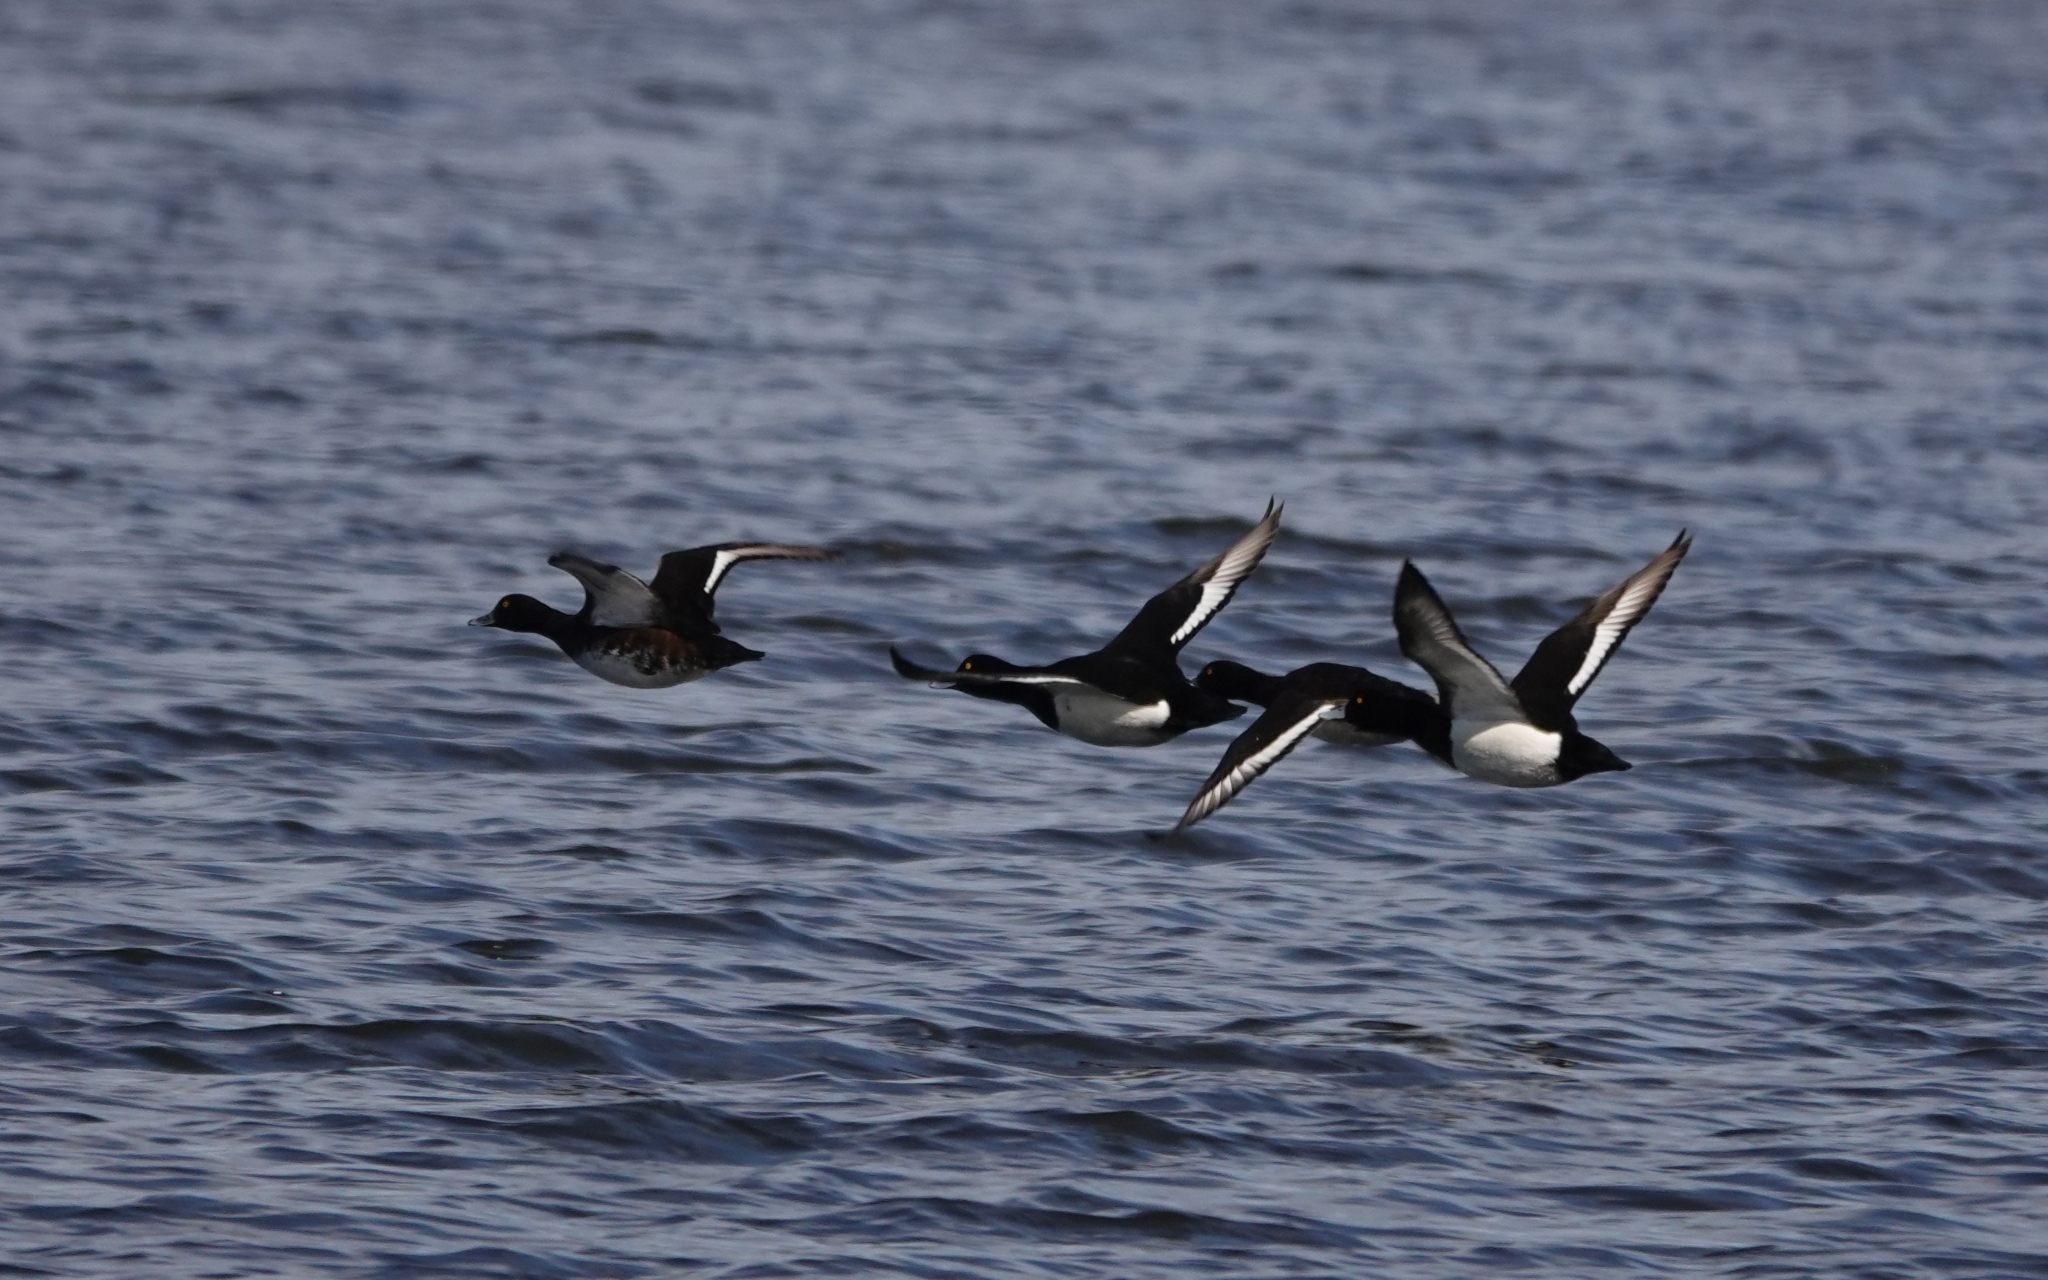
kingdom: Animalia
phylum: Chordata
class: Aves
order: Anseriformes
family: Anatidae
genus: Aythya
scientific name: Aythya fuligula
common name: Tufted duck
